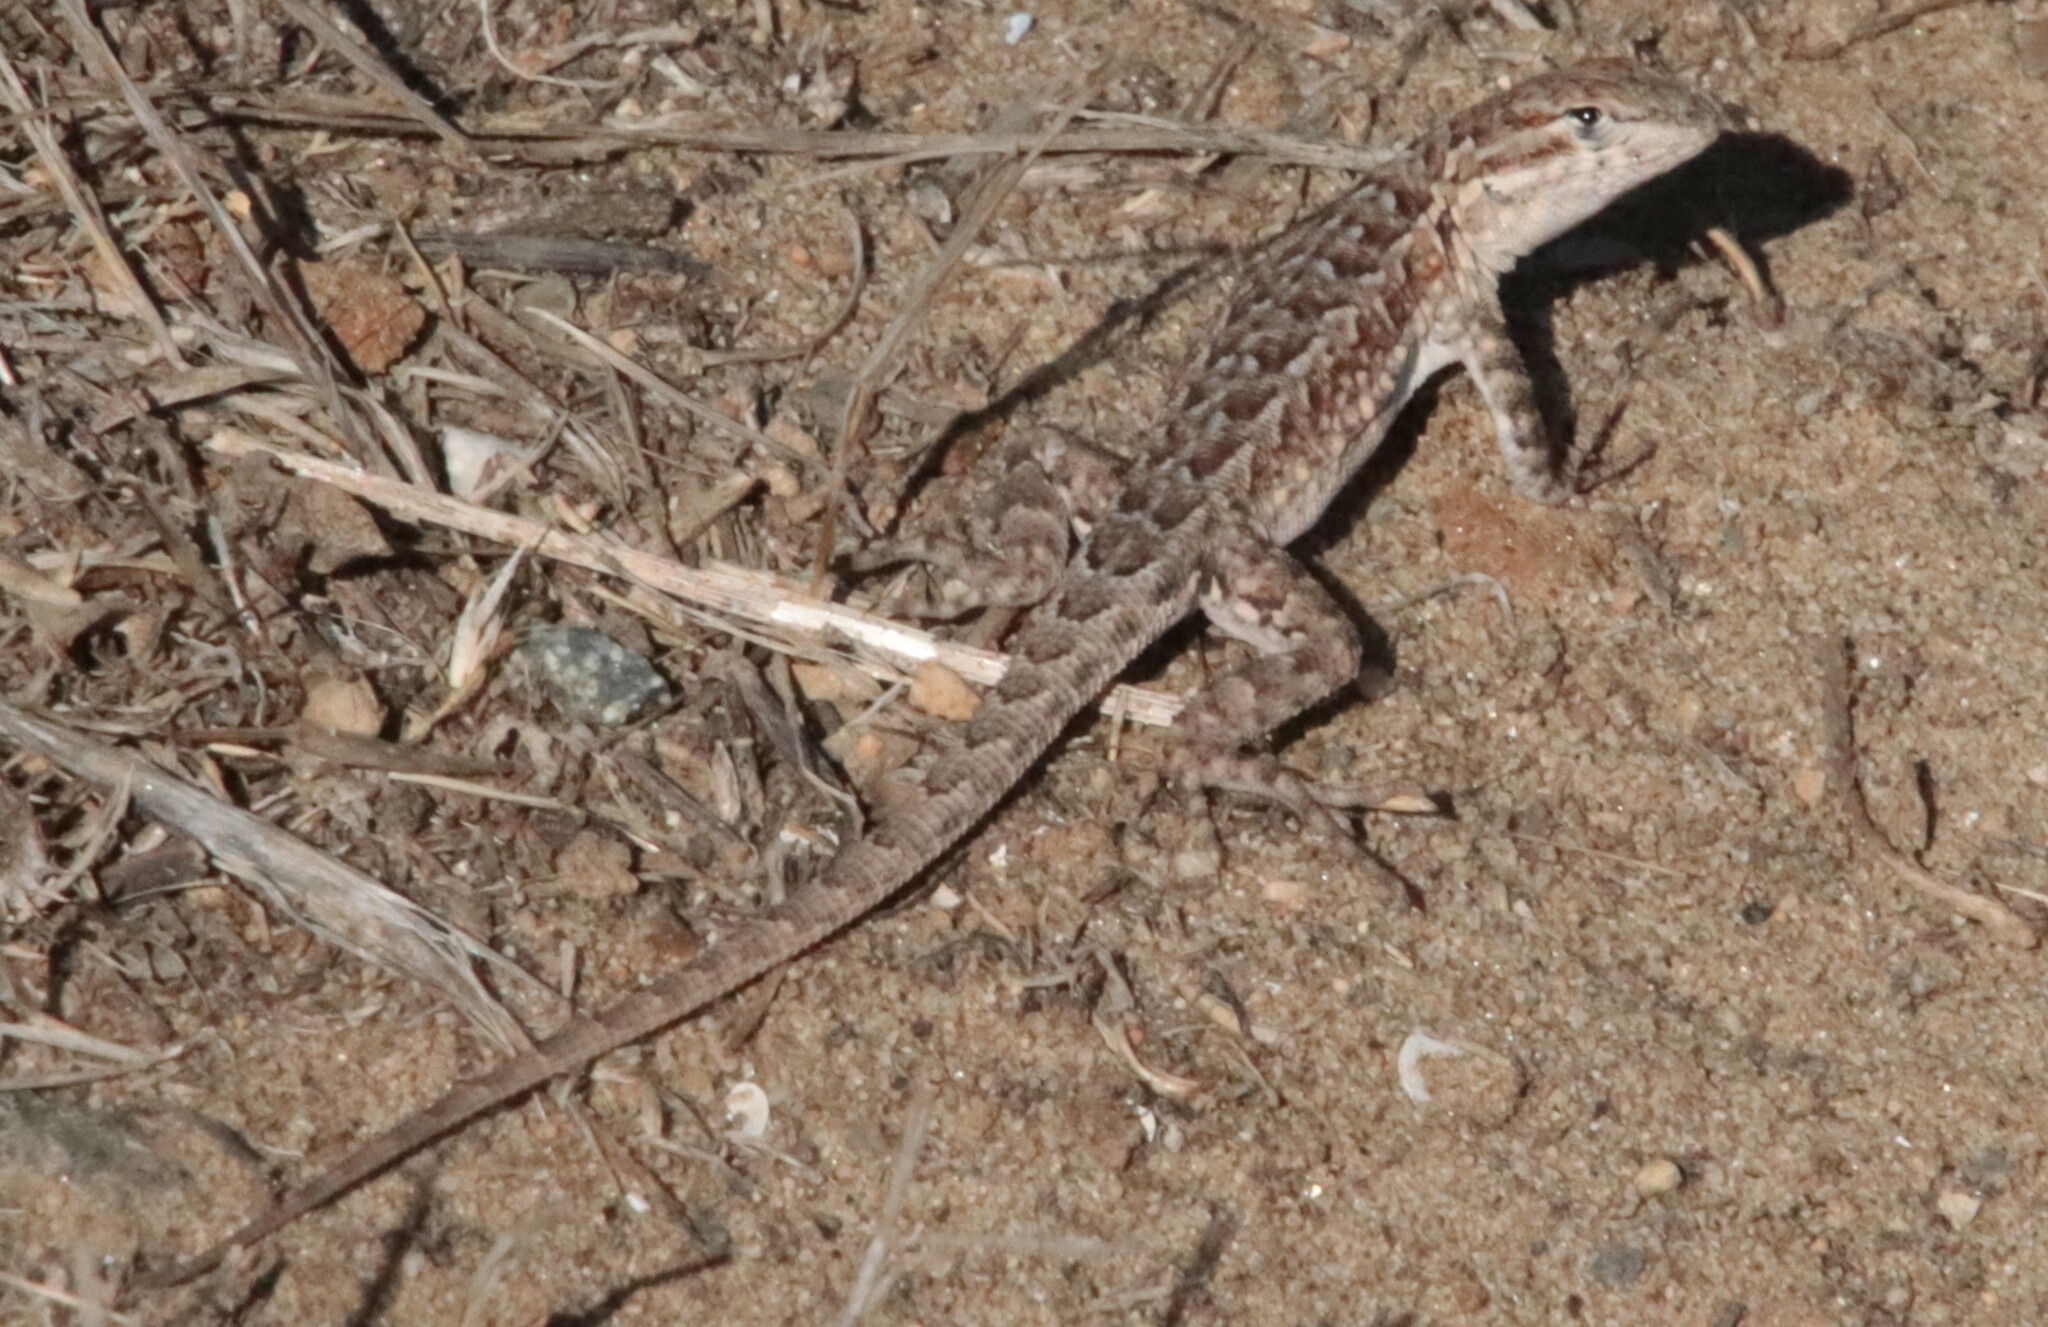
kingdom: Animalia
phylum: Chordata
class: Squamata
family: Phrynosomatidae
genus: Uta
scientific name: Uta stansburiana
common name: Side-blotched lizard
